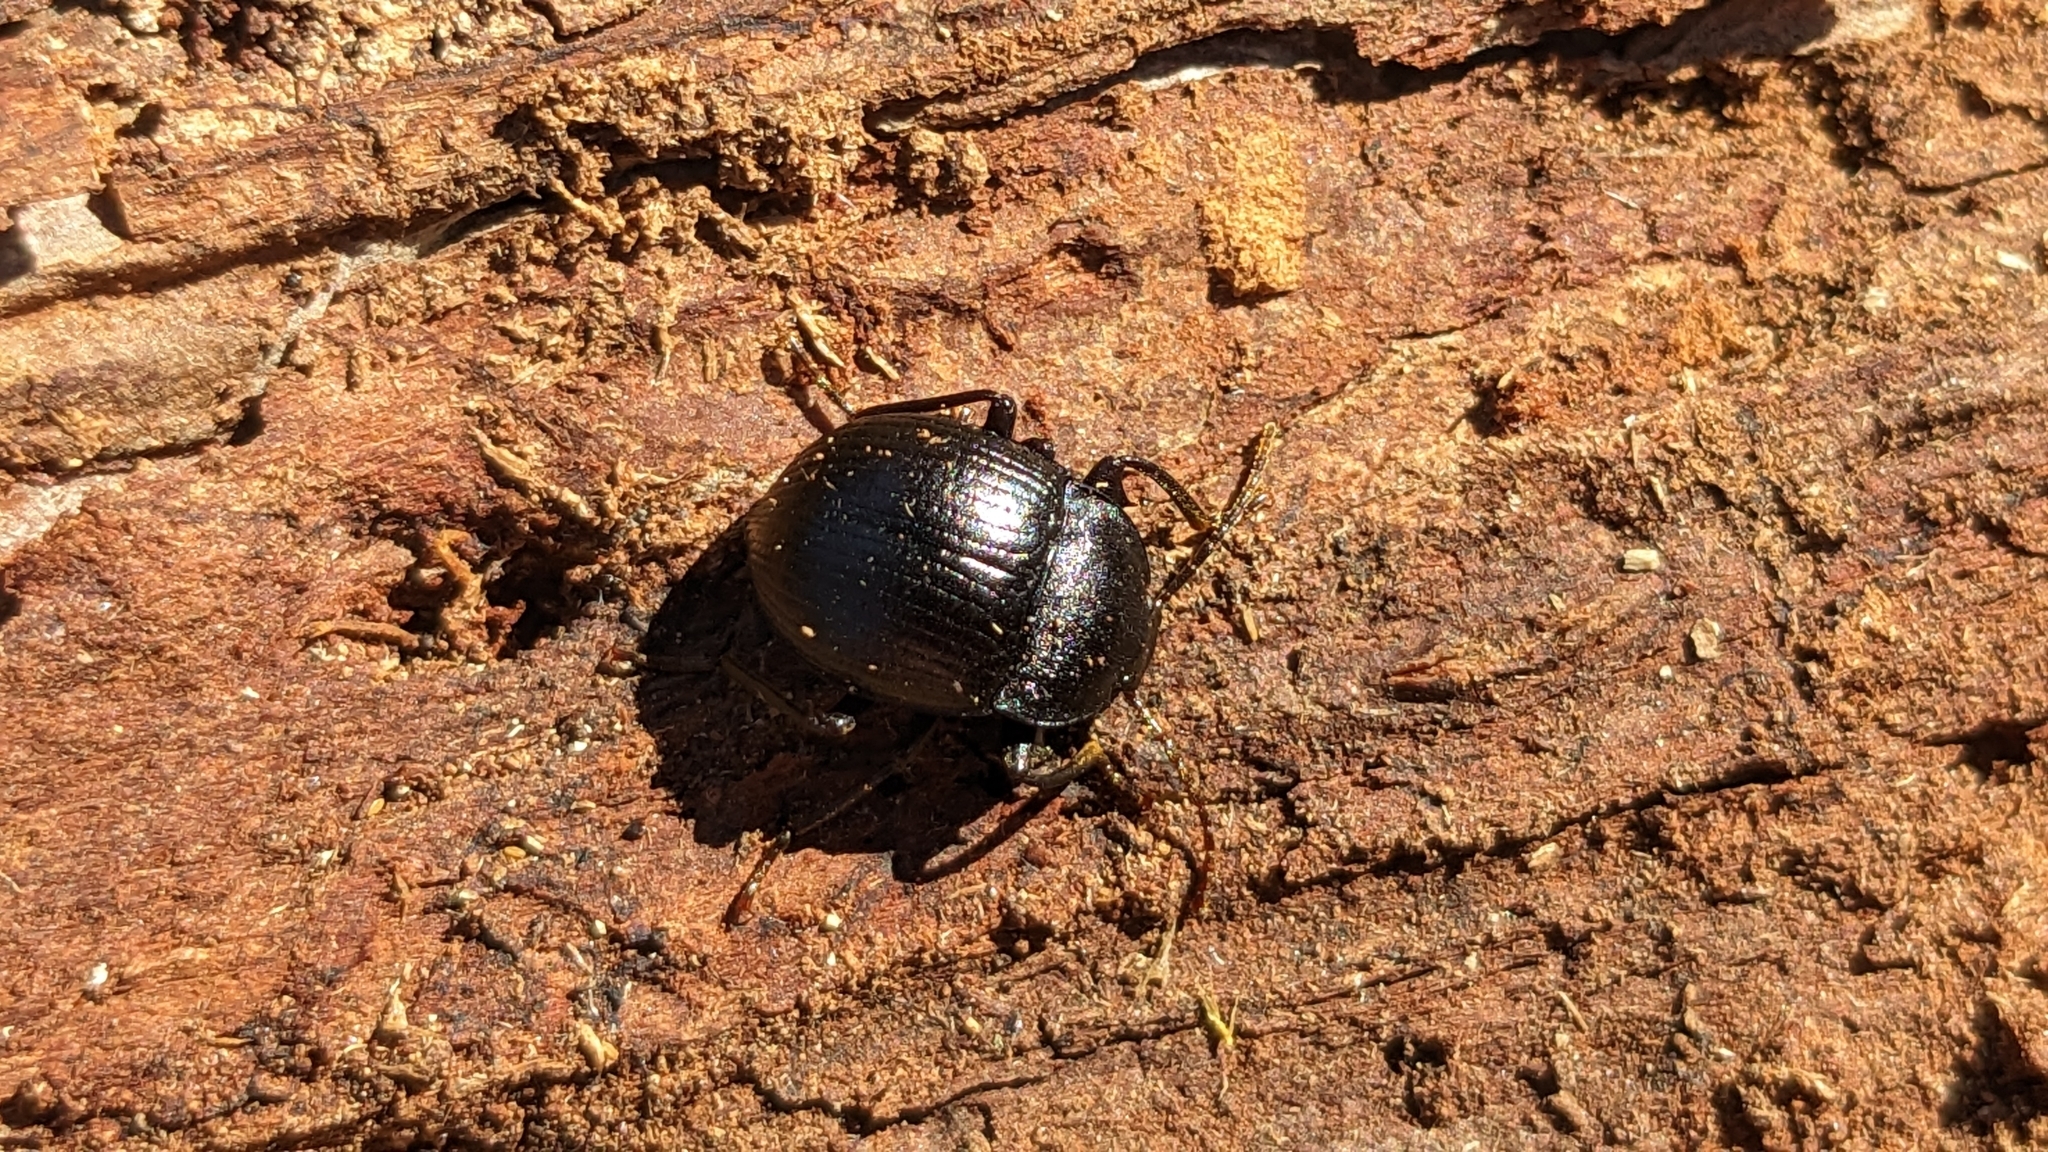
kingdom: Animalia
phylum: Arthropoda
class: Insecta
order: Coleoptera
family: Tenebrionidae
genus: Accanthopus
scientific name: Accanthopus velikensis
